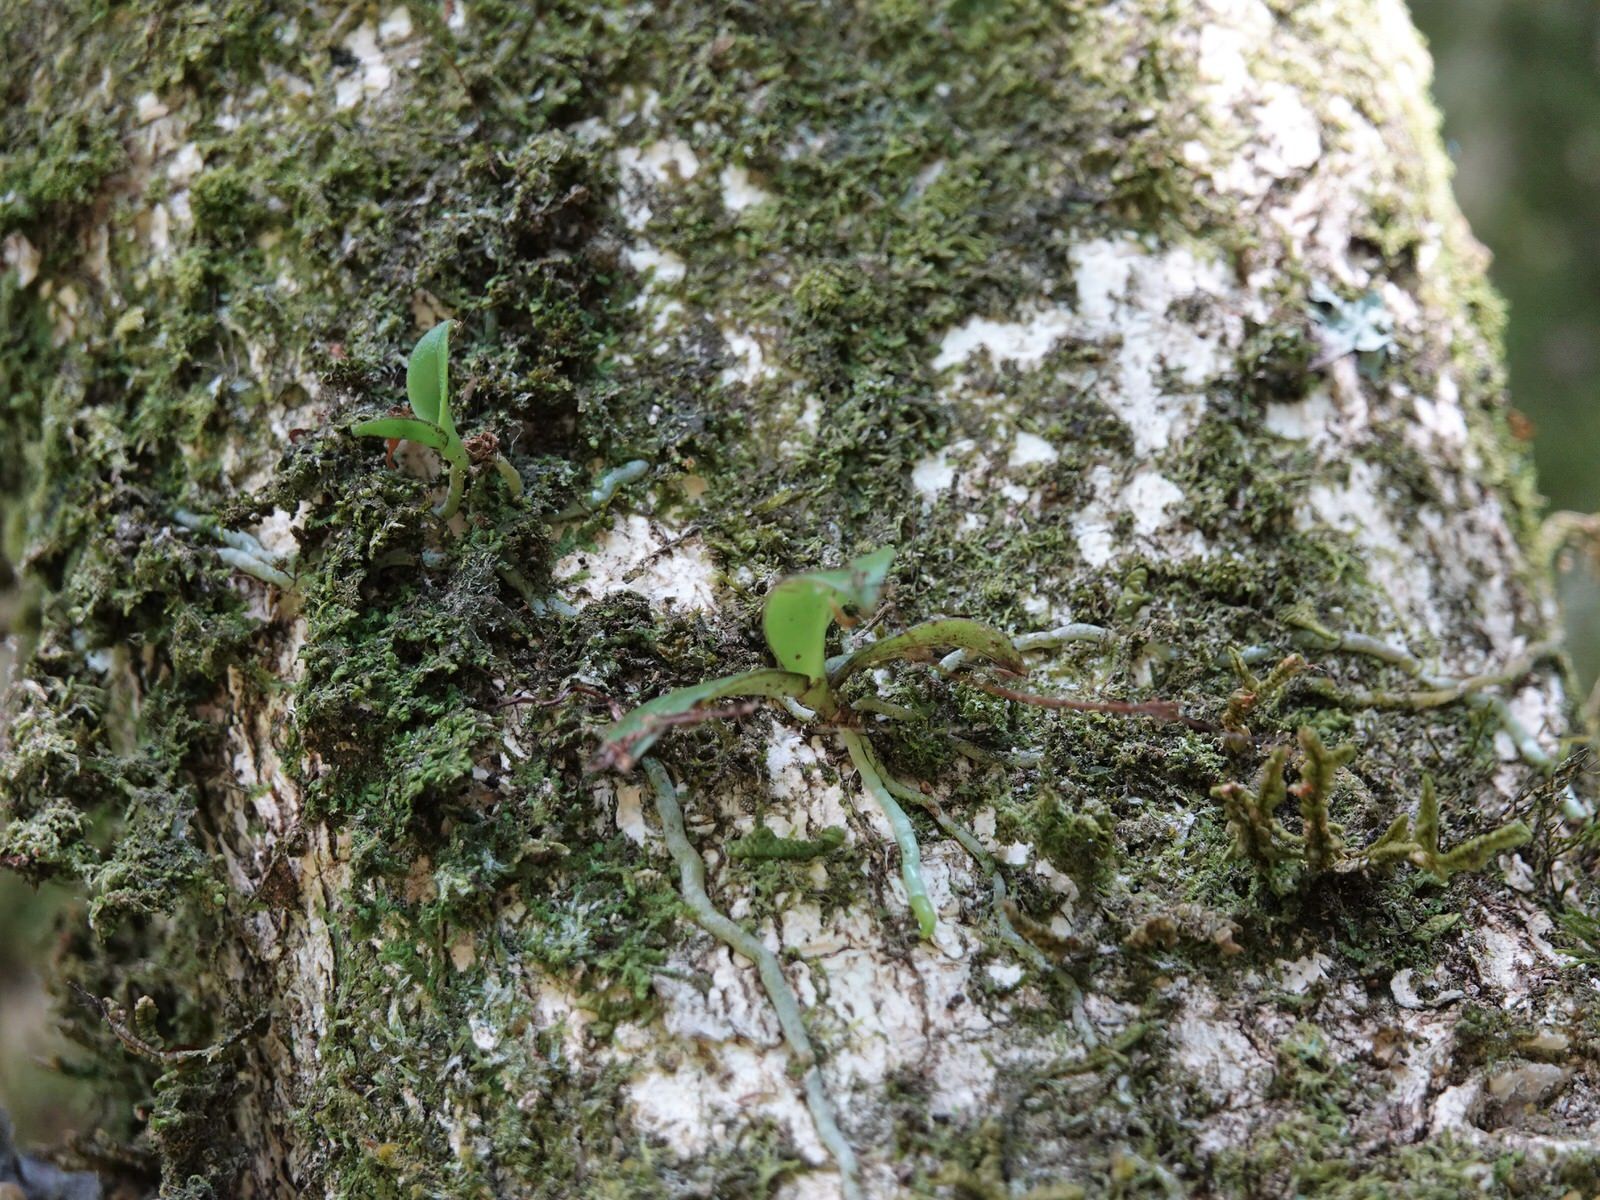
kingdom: Plantae
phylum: Tracheophyta
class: Liliopsida
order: Asparagales
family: Orchidaceae
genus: Drymoanthus
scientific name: Drymoanthus adversus
